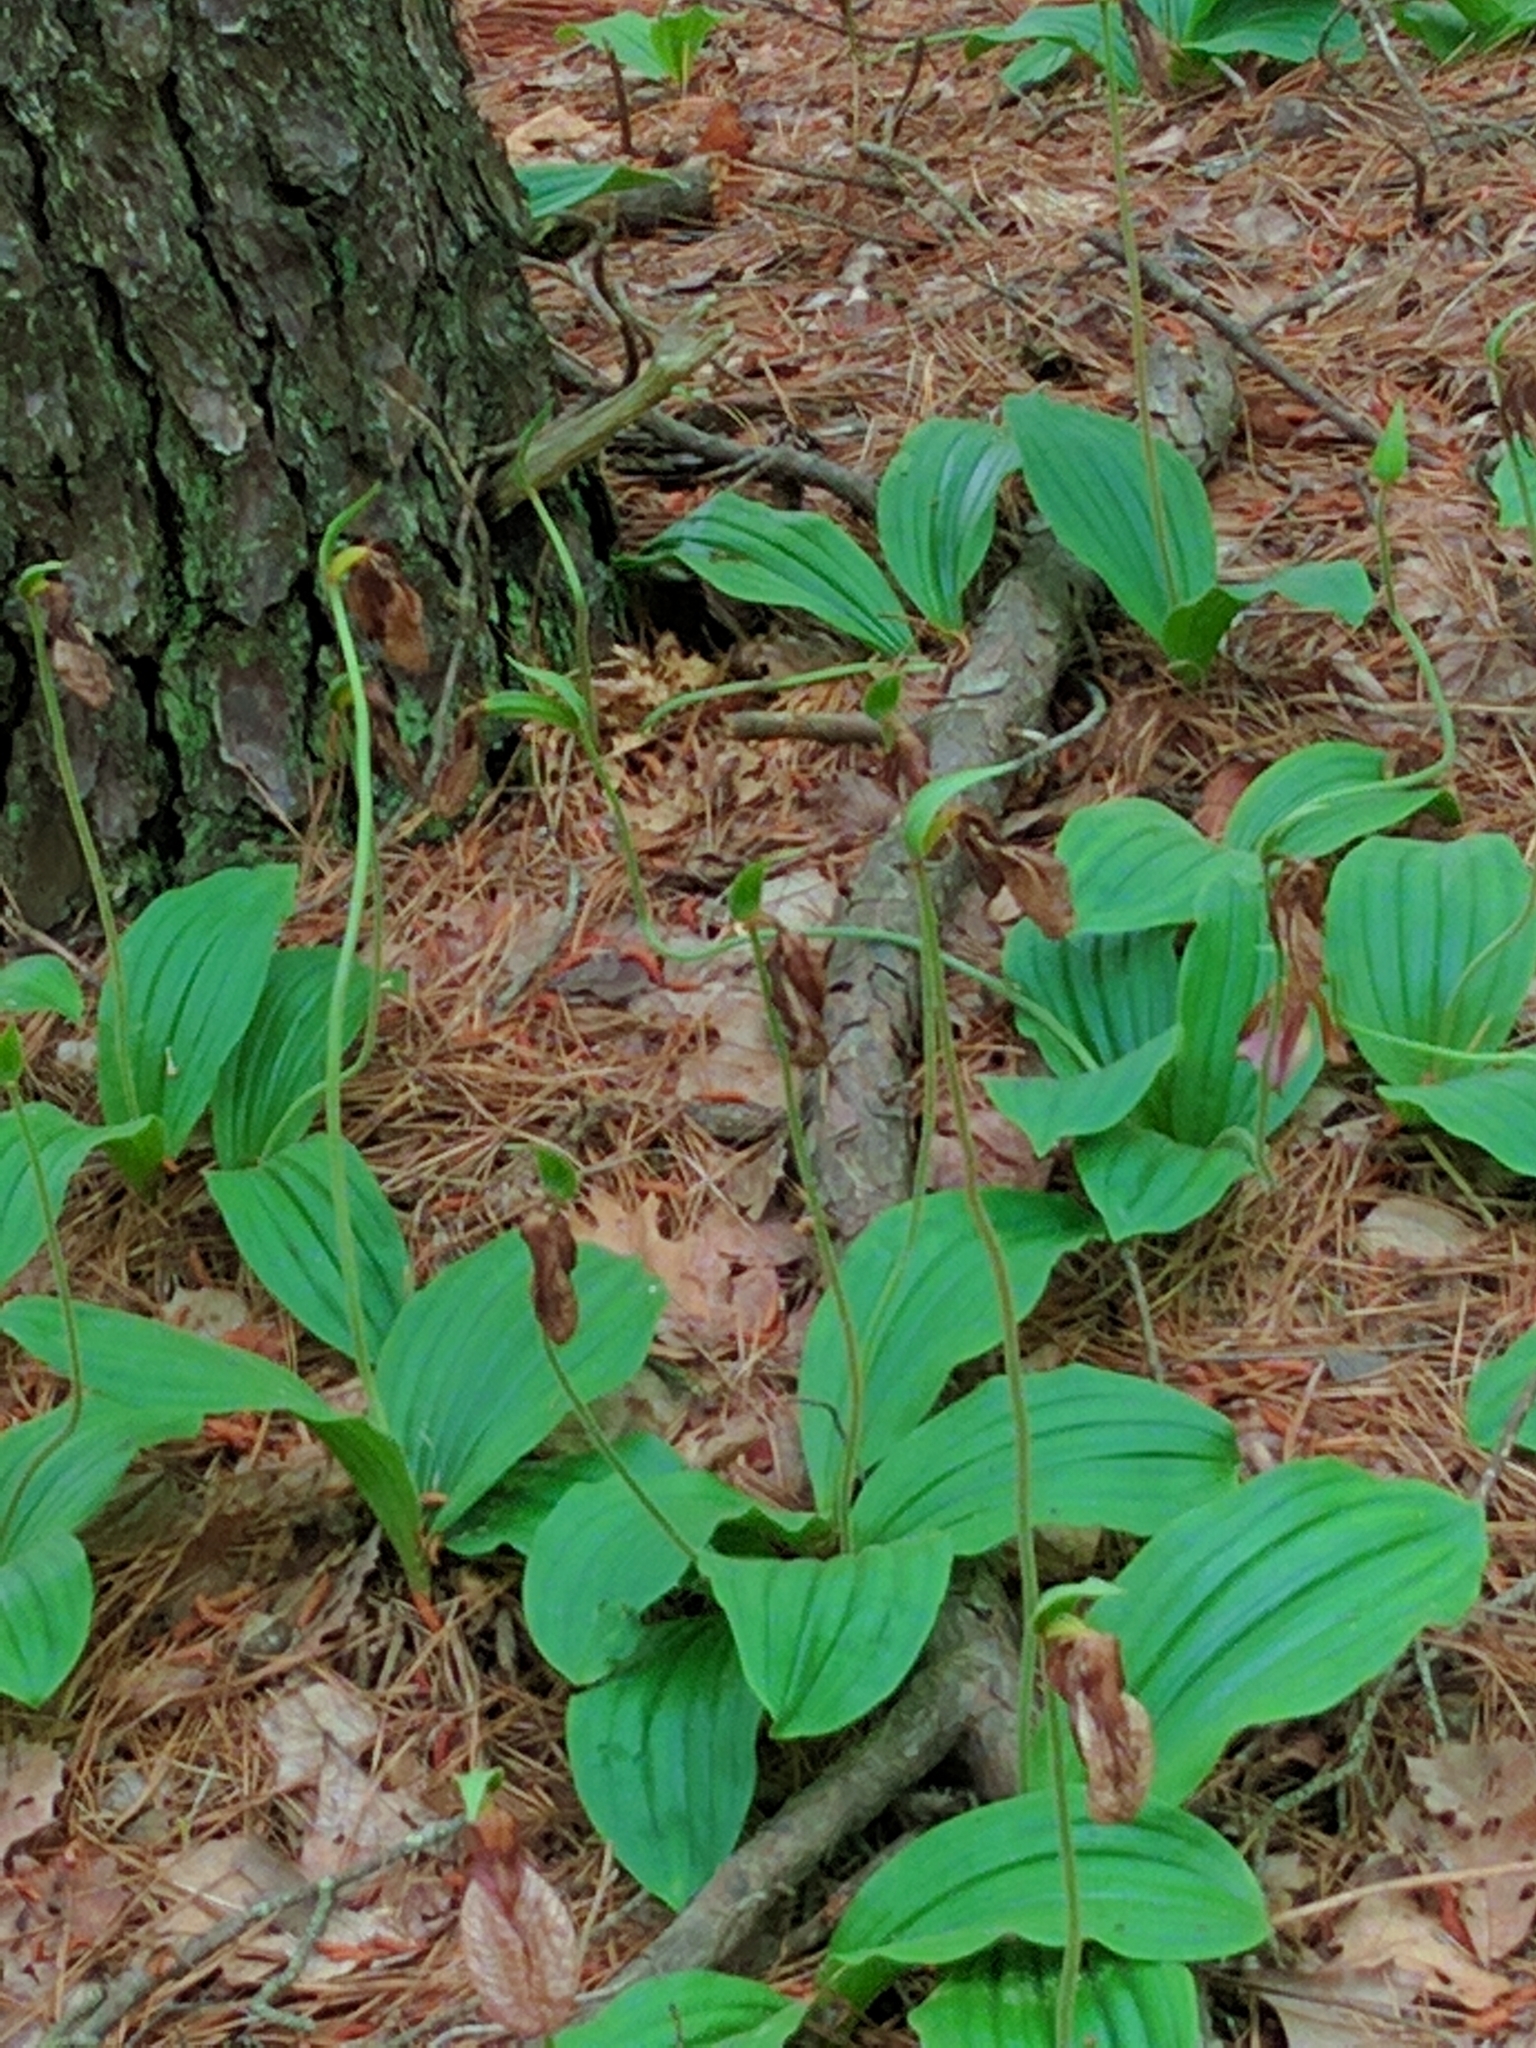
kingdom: Plantae
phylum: Tracheophyta
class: Liliopsida
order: Asparagales
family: Orchidaceae
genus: Cypripedium
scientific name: Cypripedium acaule
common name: Pink lady's-slipper
